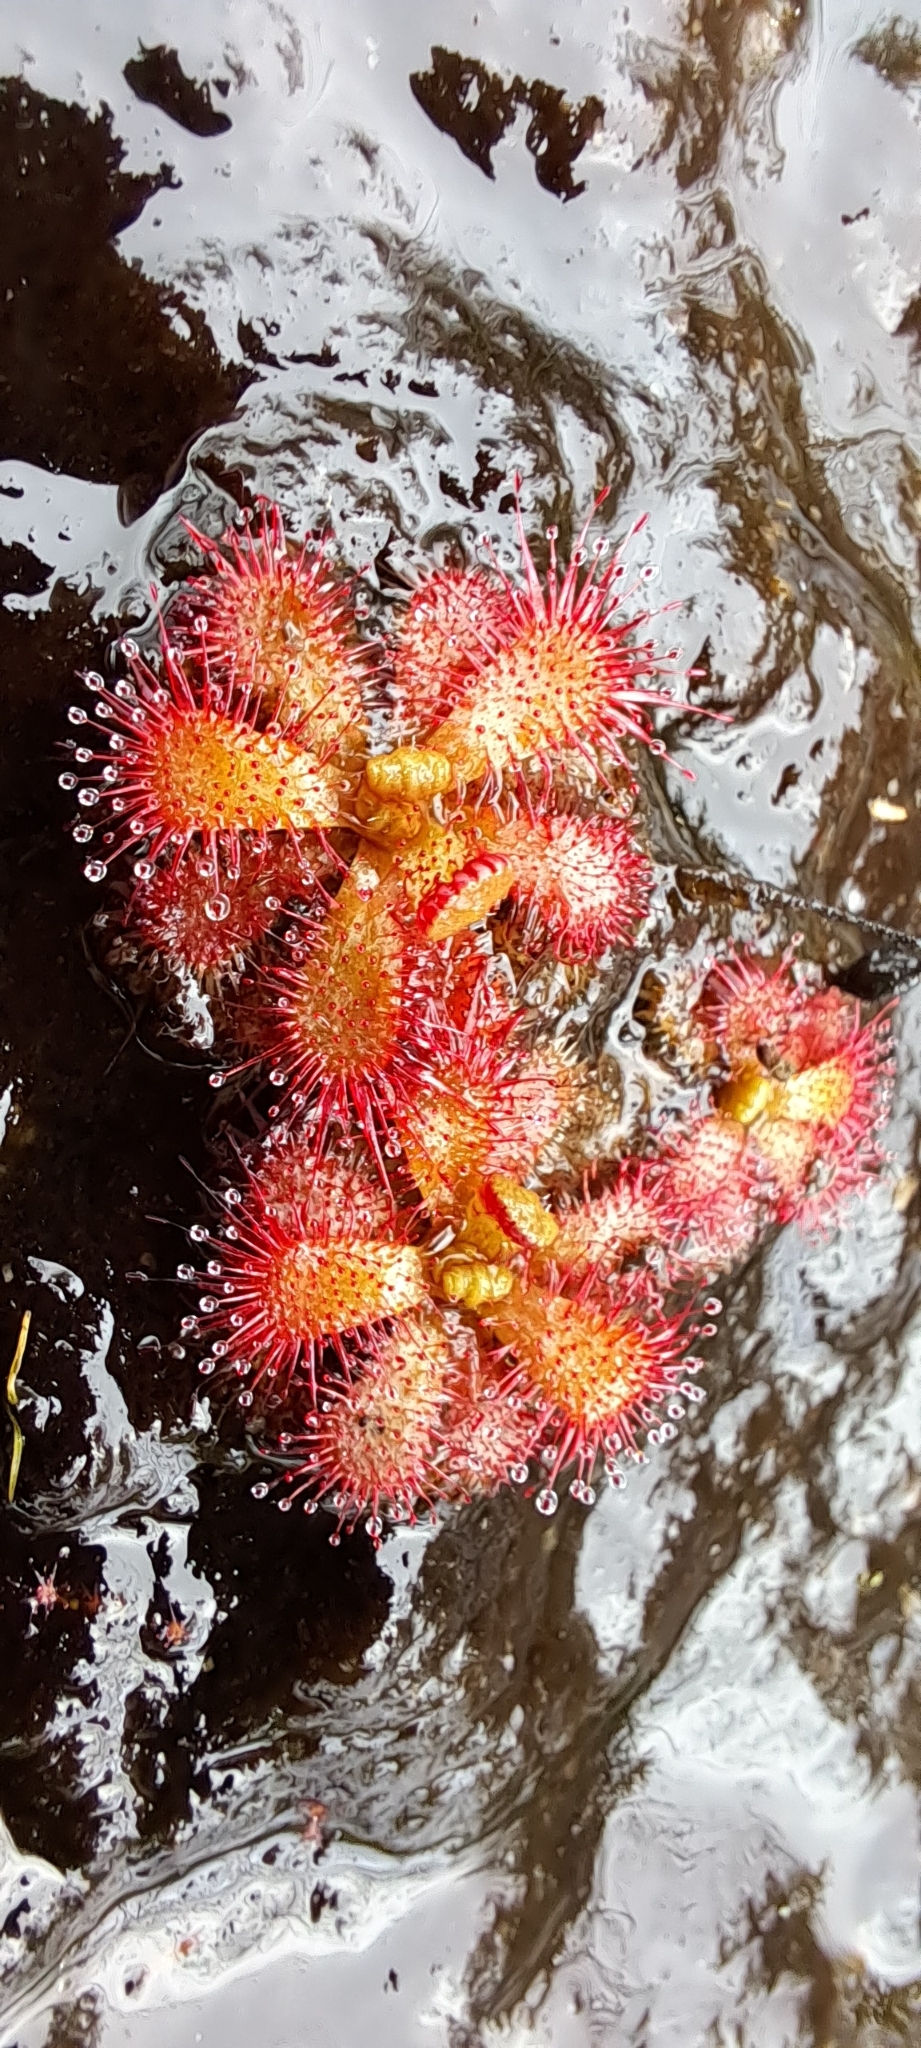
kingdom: Plantae
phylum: Tracheophyta
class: Magnoliopsida
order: Caryophyllales
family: Droseraceae
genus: Drosera
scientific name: Drosera trinervia
